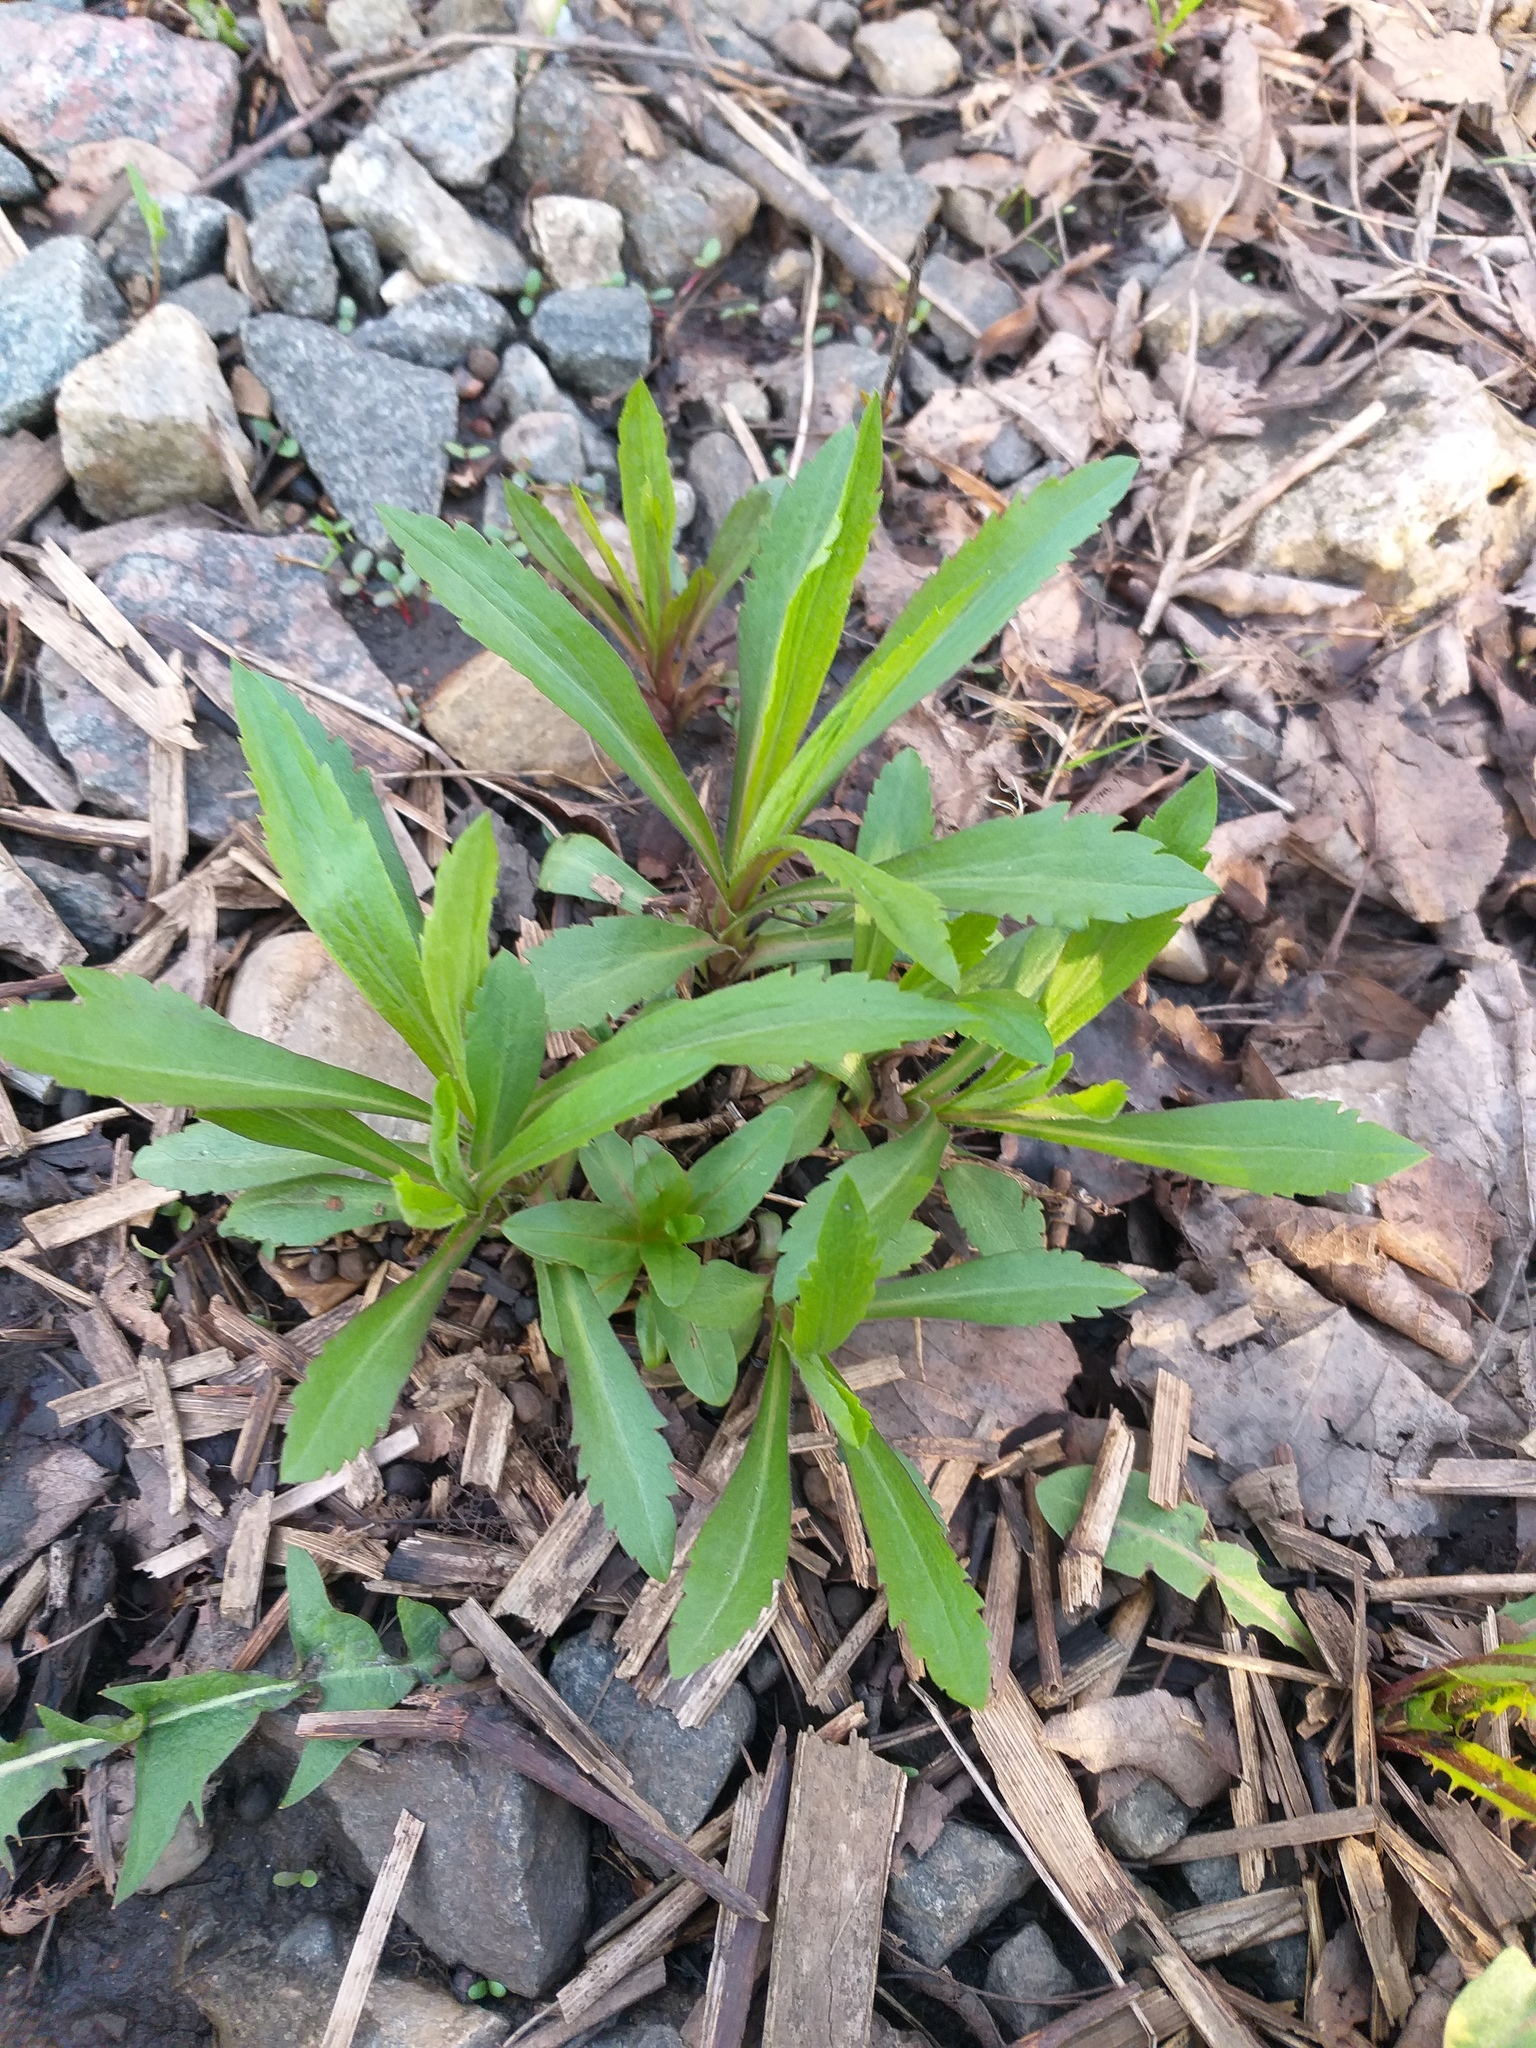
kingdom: Plantae
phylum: Tracheophyta
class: Magnoliopsida
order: Asterales
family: Asteraceae
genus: Solidago
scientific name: Solidago canadensis
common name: Canada goldenrod
